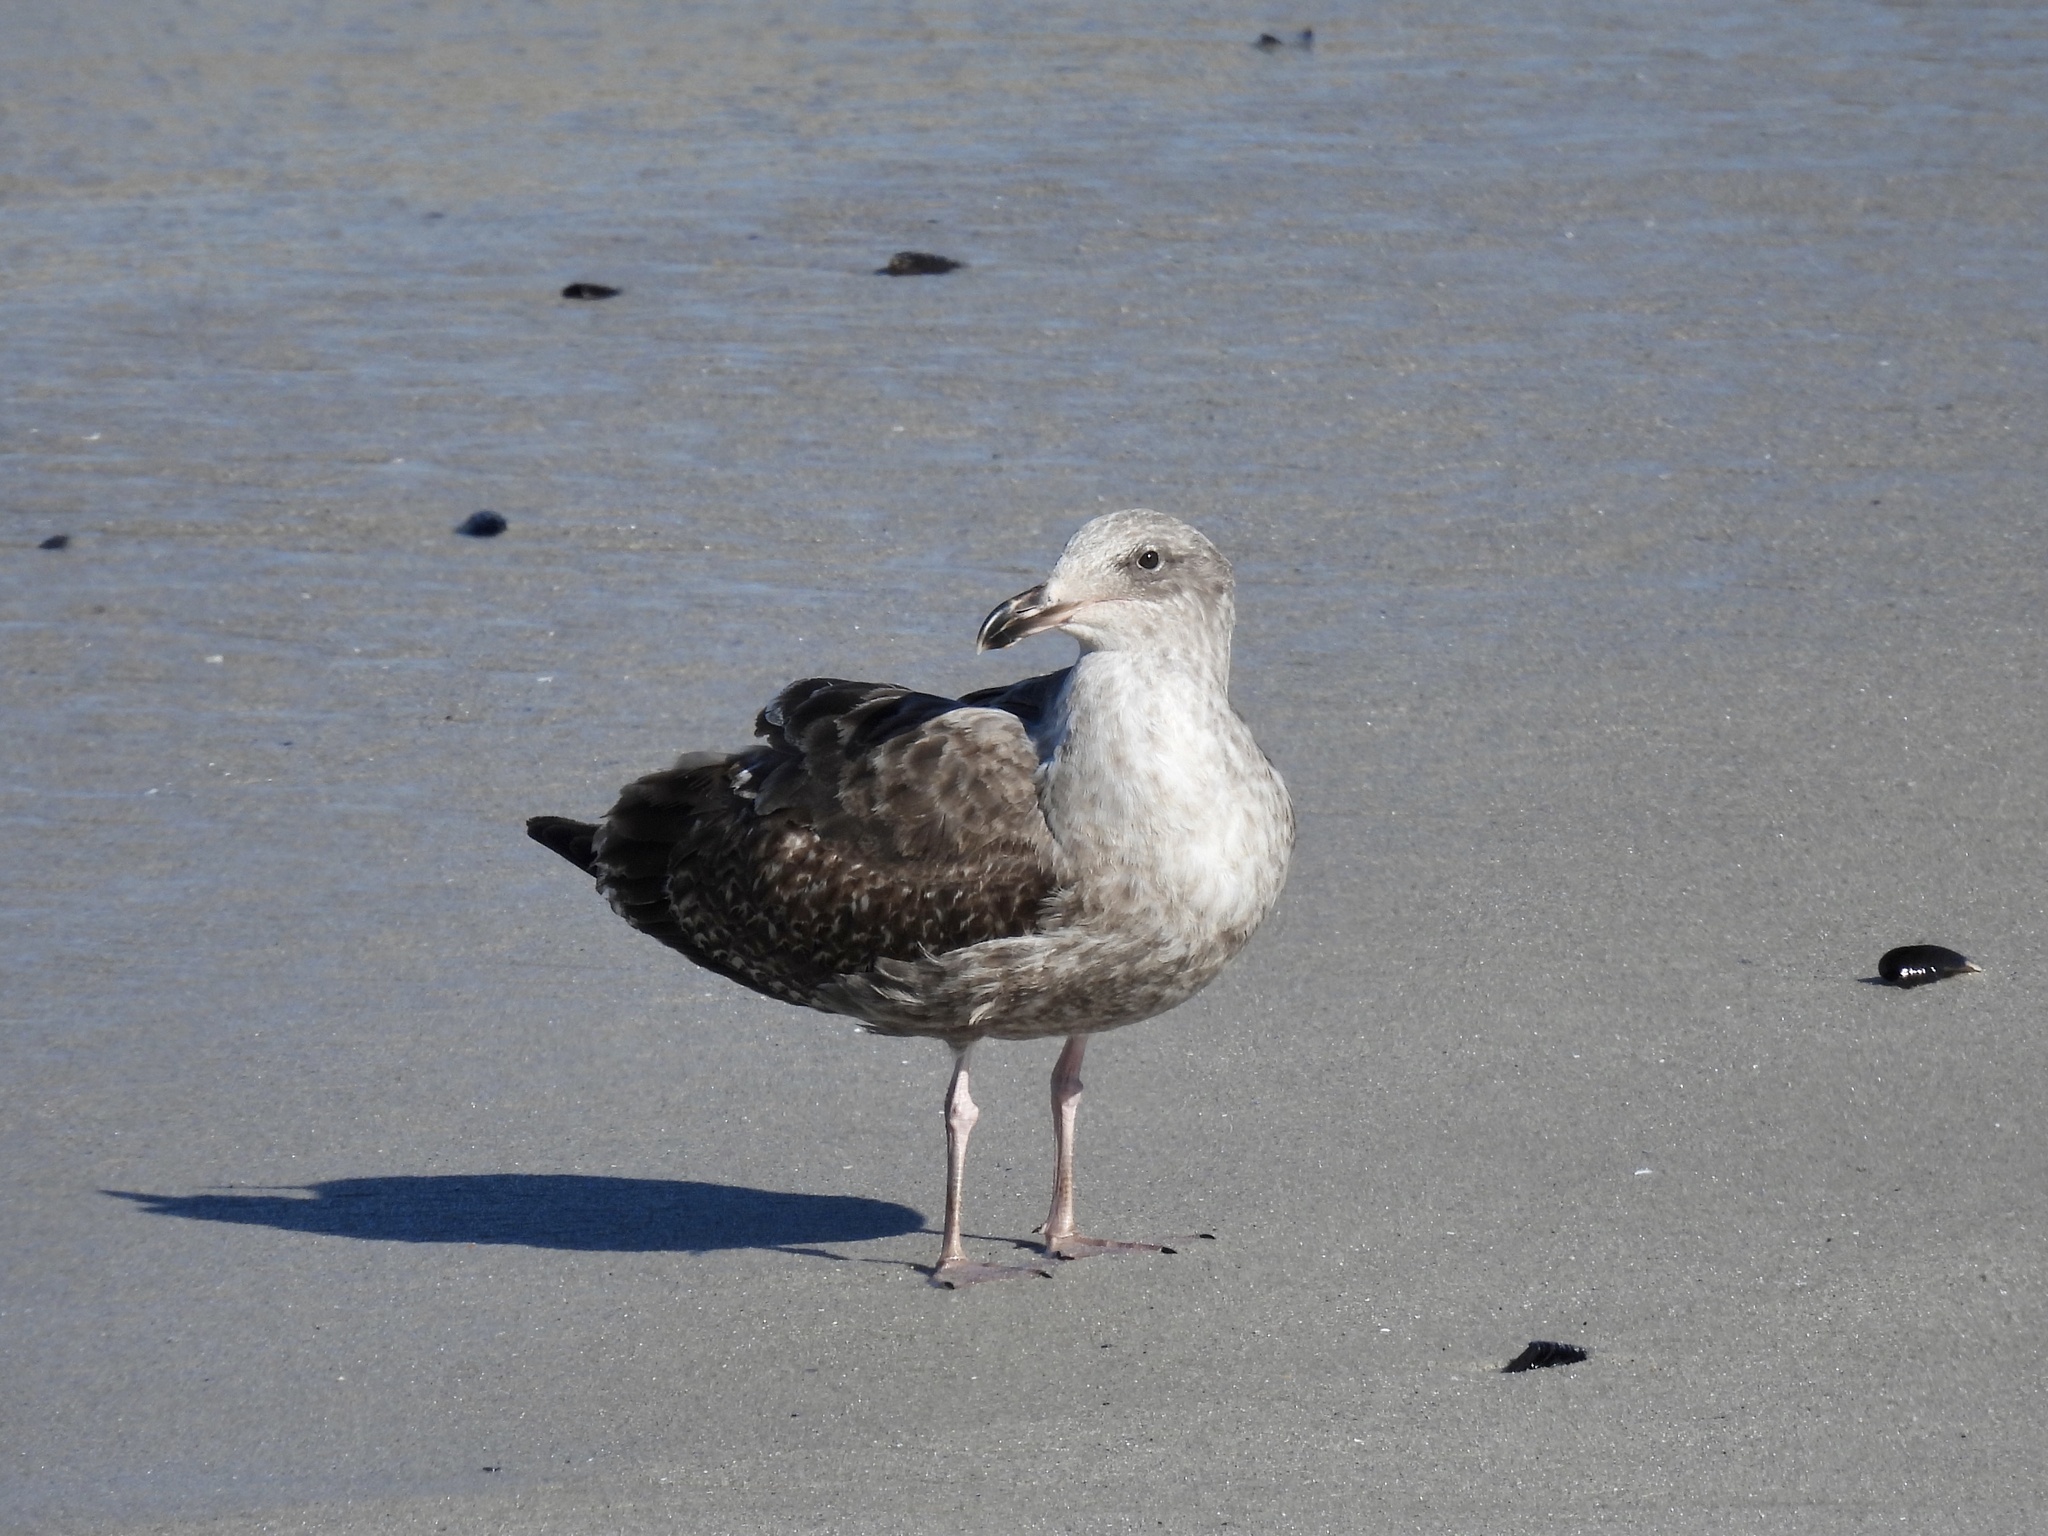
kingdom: Animalia
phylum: Chordata
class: Aves
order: Charadriiformes
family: Laridae
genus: Larus
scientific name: Larus occidentalis
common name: Western gull
